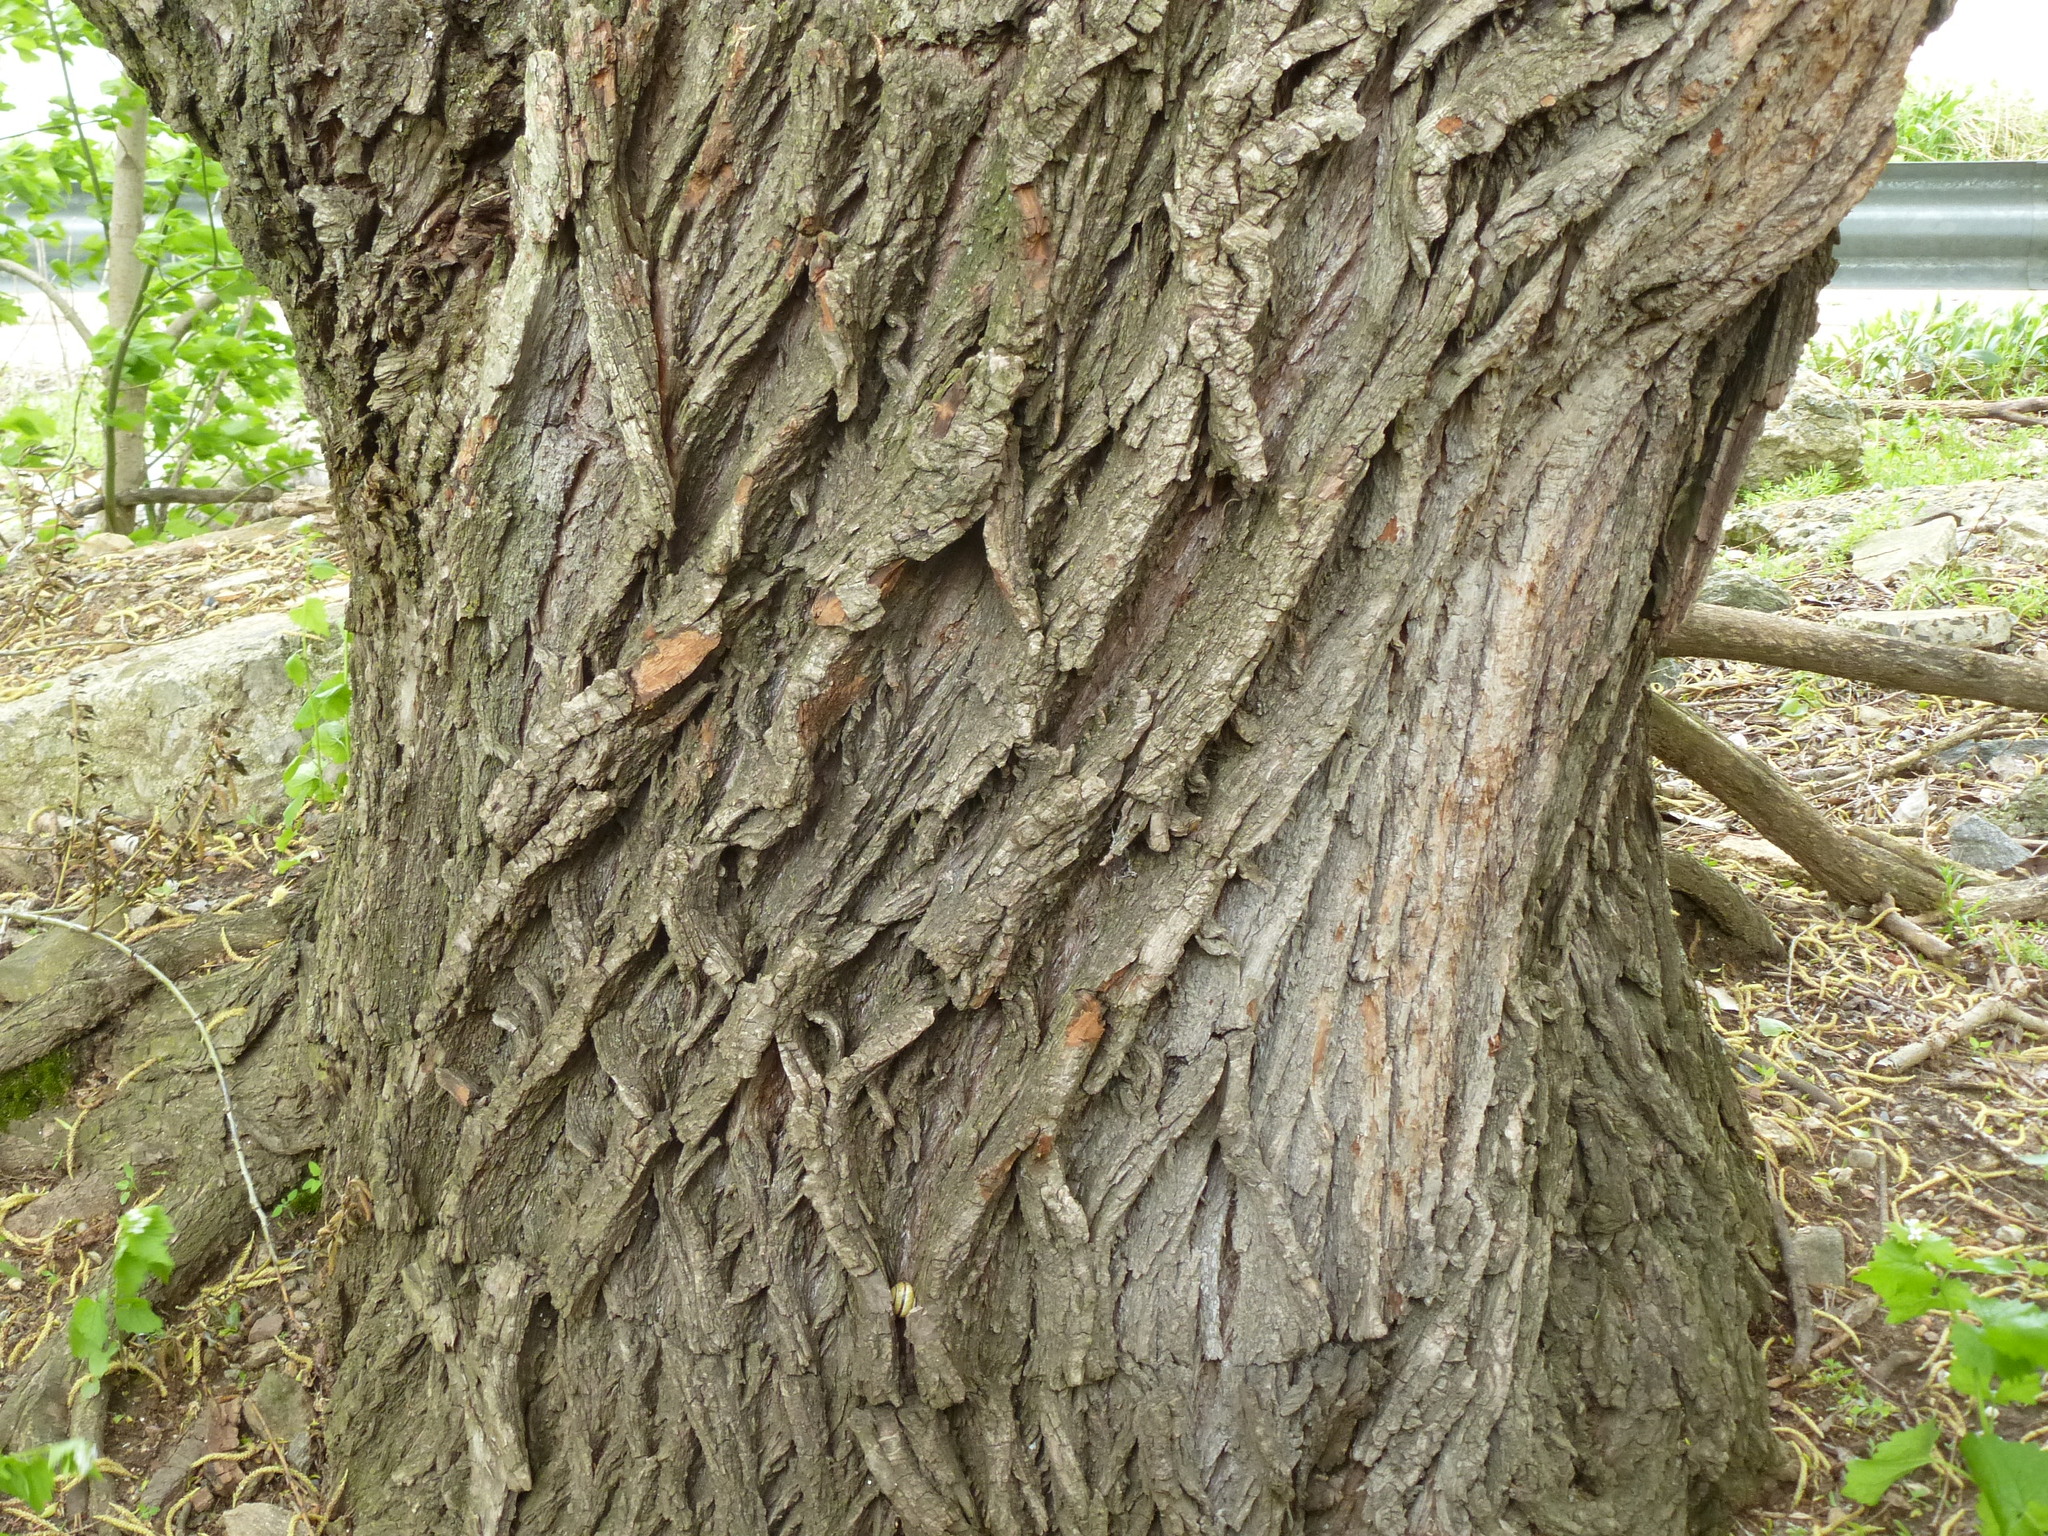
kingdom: Plantae
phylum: Tracheophyta
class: Magnoliopsida
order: Rosales
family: Moraceae
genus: Morus
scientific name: Morus alba
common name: White mulberry
